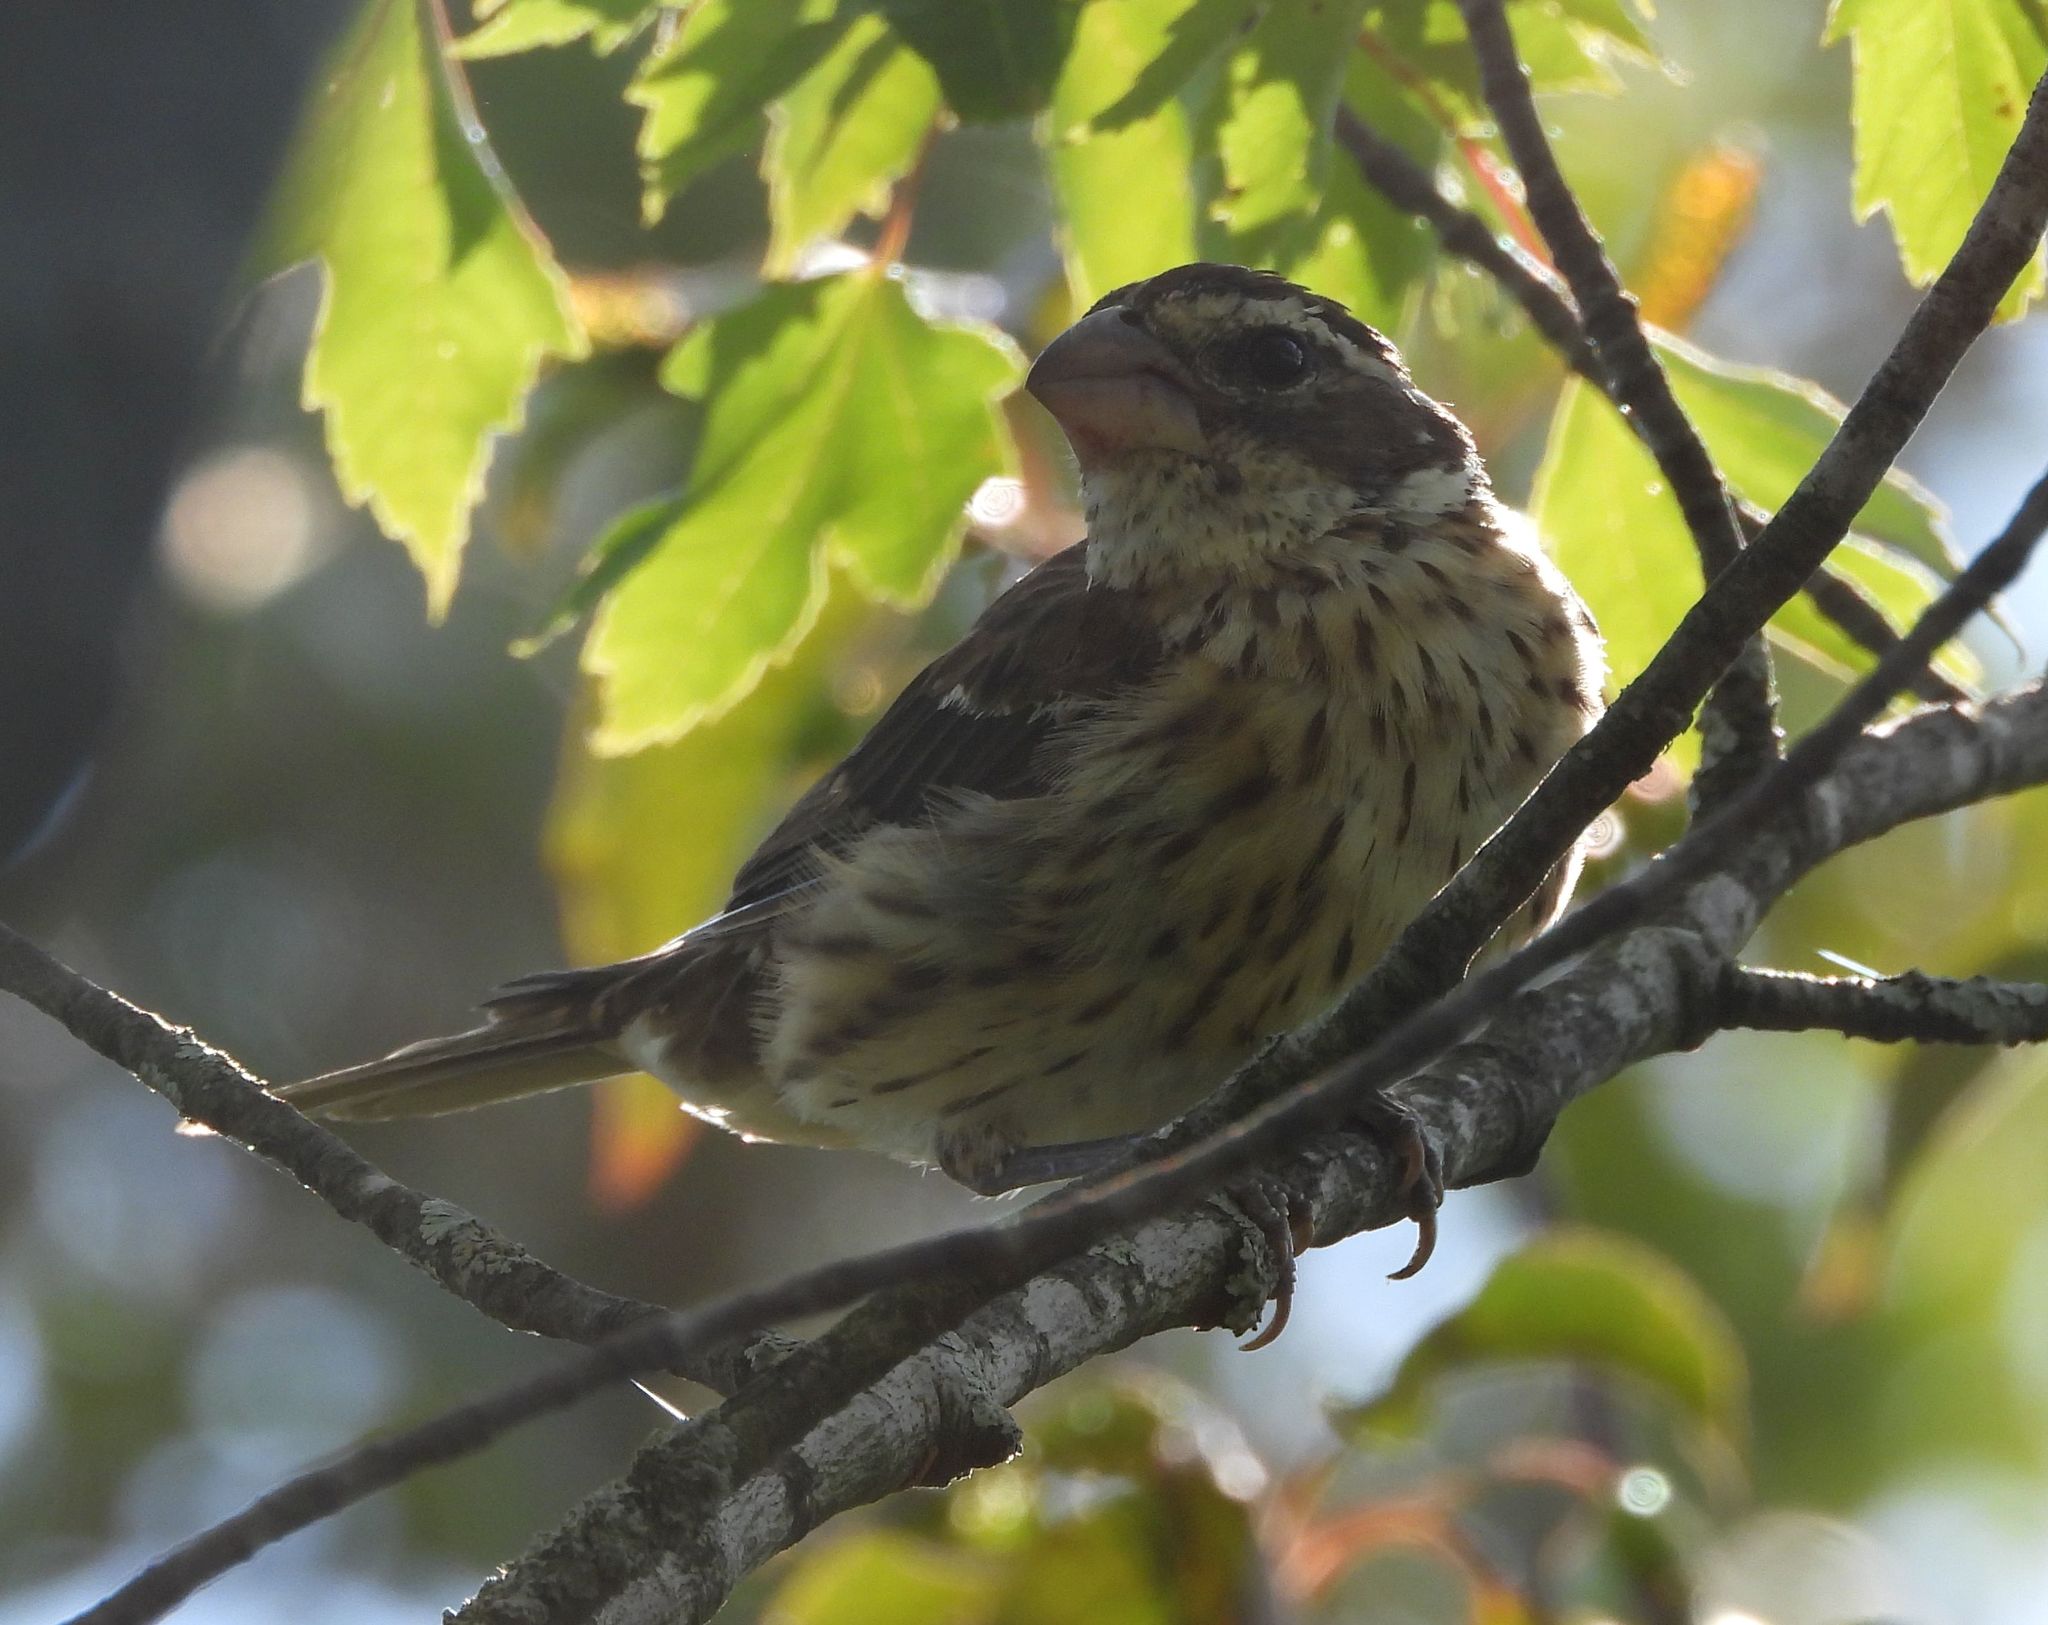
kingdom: Animalia
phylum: Chordata
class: Aves
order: Passeriformes
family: Cardinalidae
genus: Pheucticus
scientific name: Pheucticus ludovicianus
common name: Rose-breasted grosbeak
